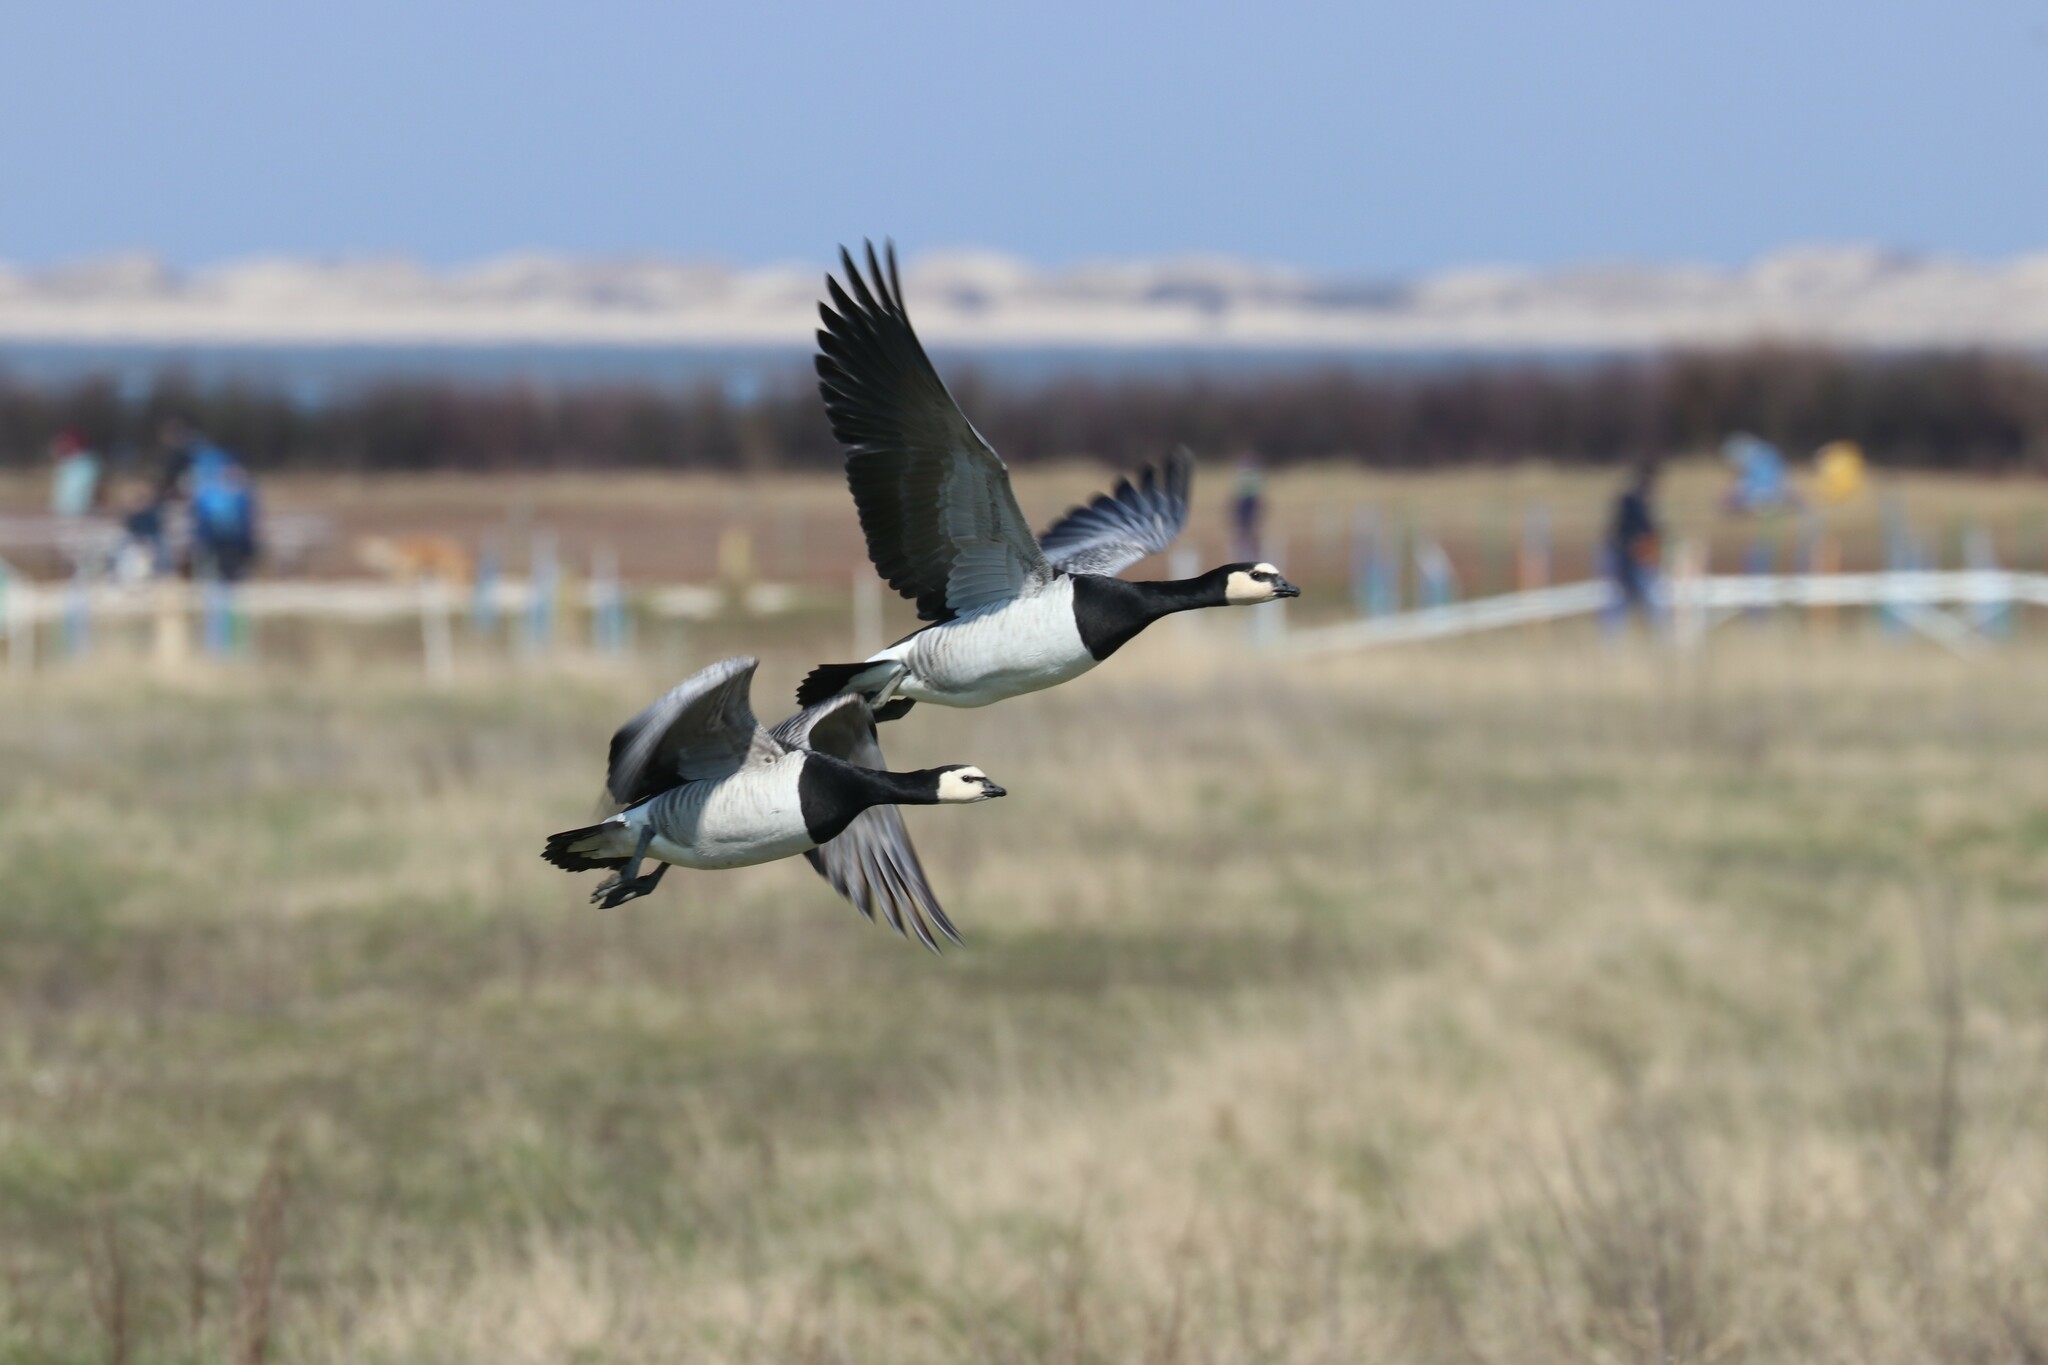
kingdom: Animalia
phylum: Chordata
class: Aves
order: Anseriformes
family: Anatidae
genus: Branta
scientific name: Branta leucopsis
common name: Barnacle goose
